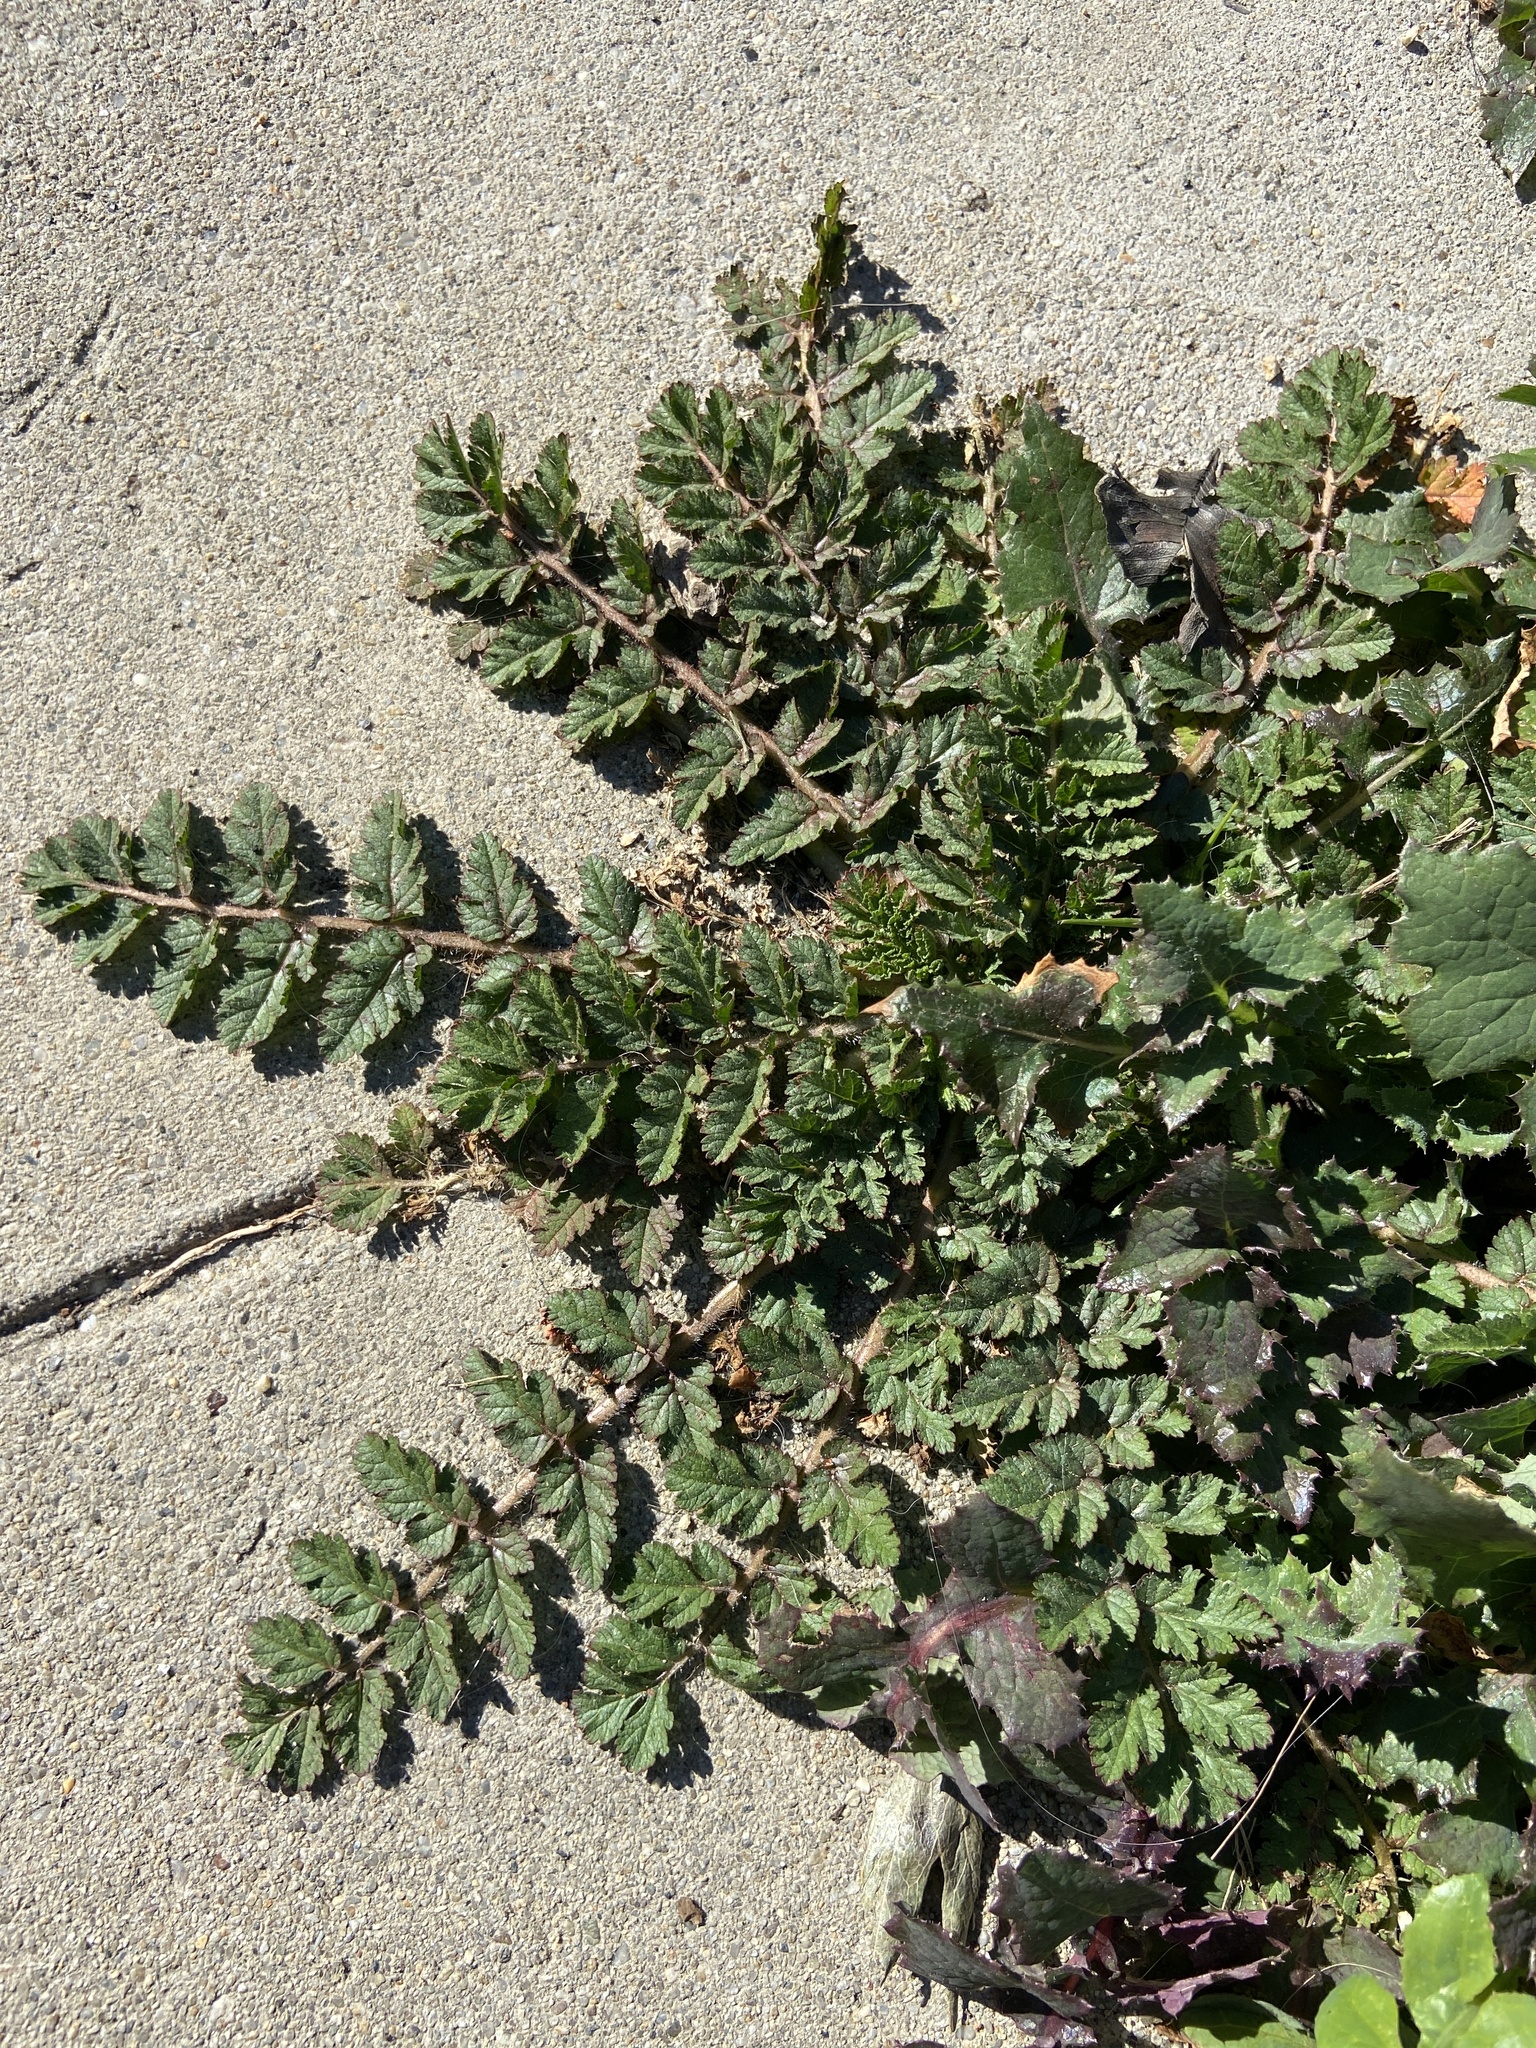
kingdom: Plantae
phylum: Tracheophyta
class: Magnoliopsida
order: Geraniales
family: Geraniaceae
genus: Erodium
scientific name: Erodium moschatum
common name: Musk stork's-bill
